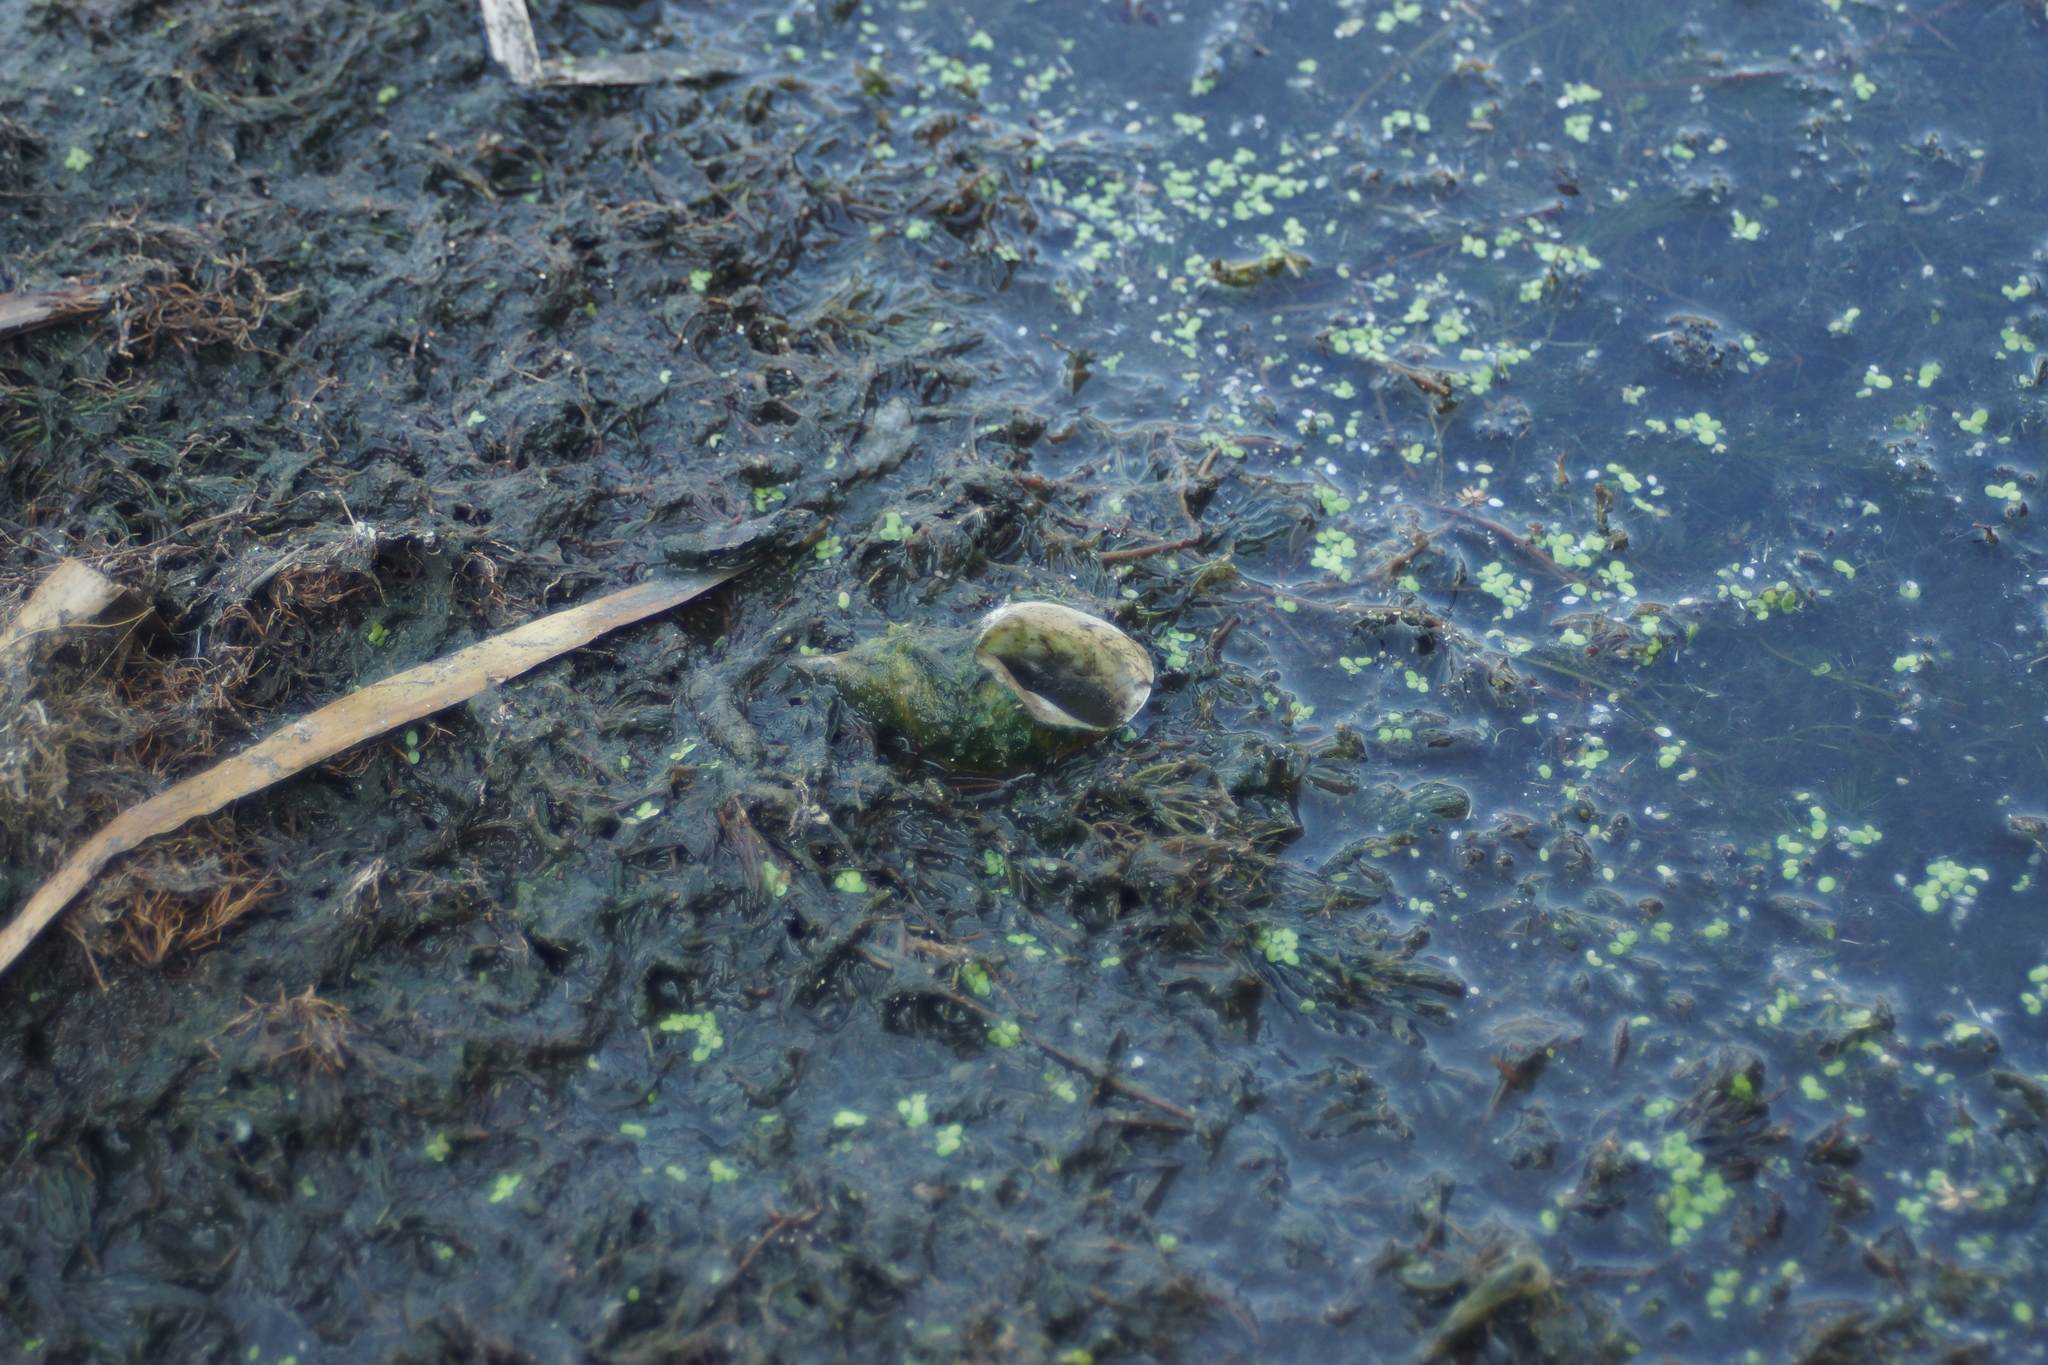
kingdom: Animalia
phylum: Mollusca
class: Gastropoda
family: Lymnaeidae
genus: Lymnaea
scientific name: Lymnaea stagnalis
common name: Great pond snail
